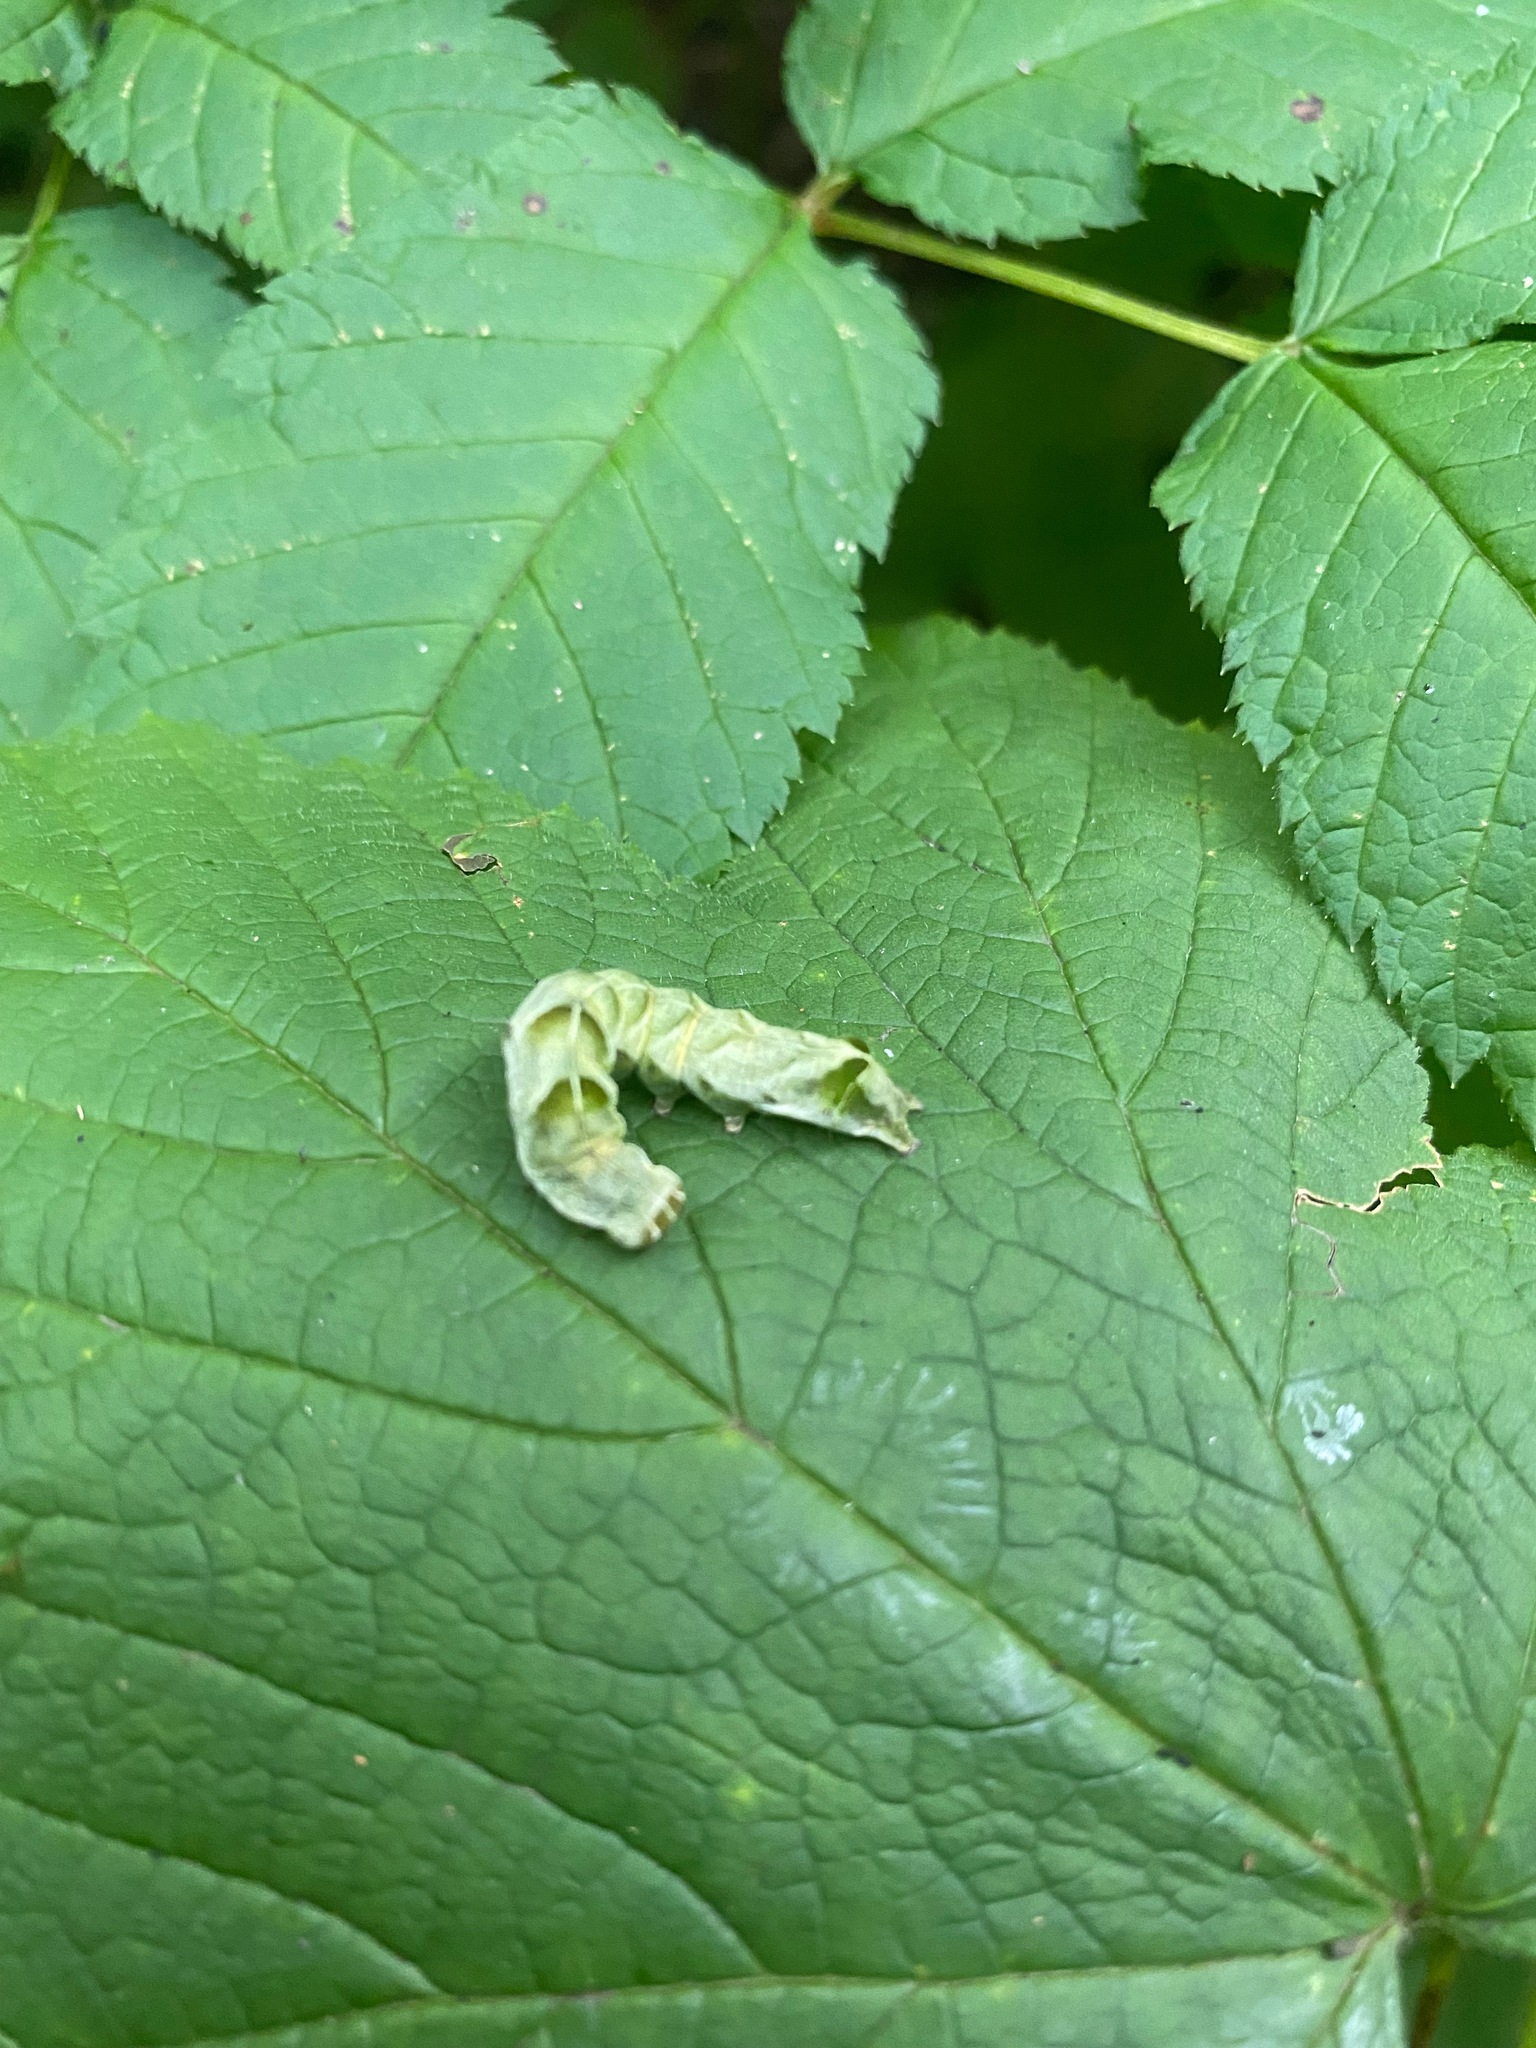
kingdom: Animalia
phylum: Arthropoda
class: Insecta
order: Lepidoptera
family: Noctuidae
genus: Melanchra
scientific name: Melanchra adjuncta
